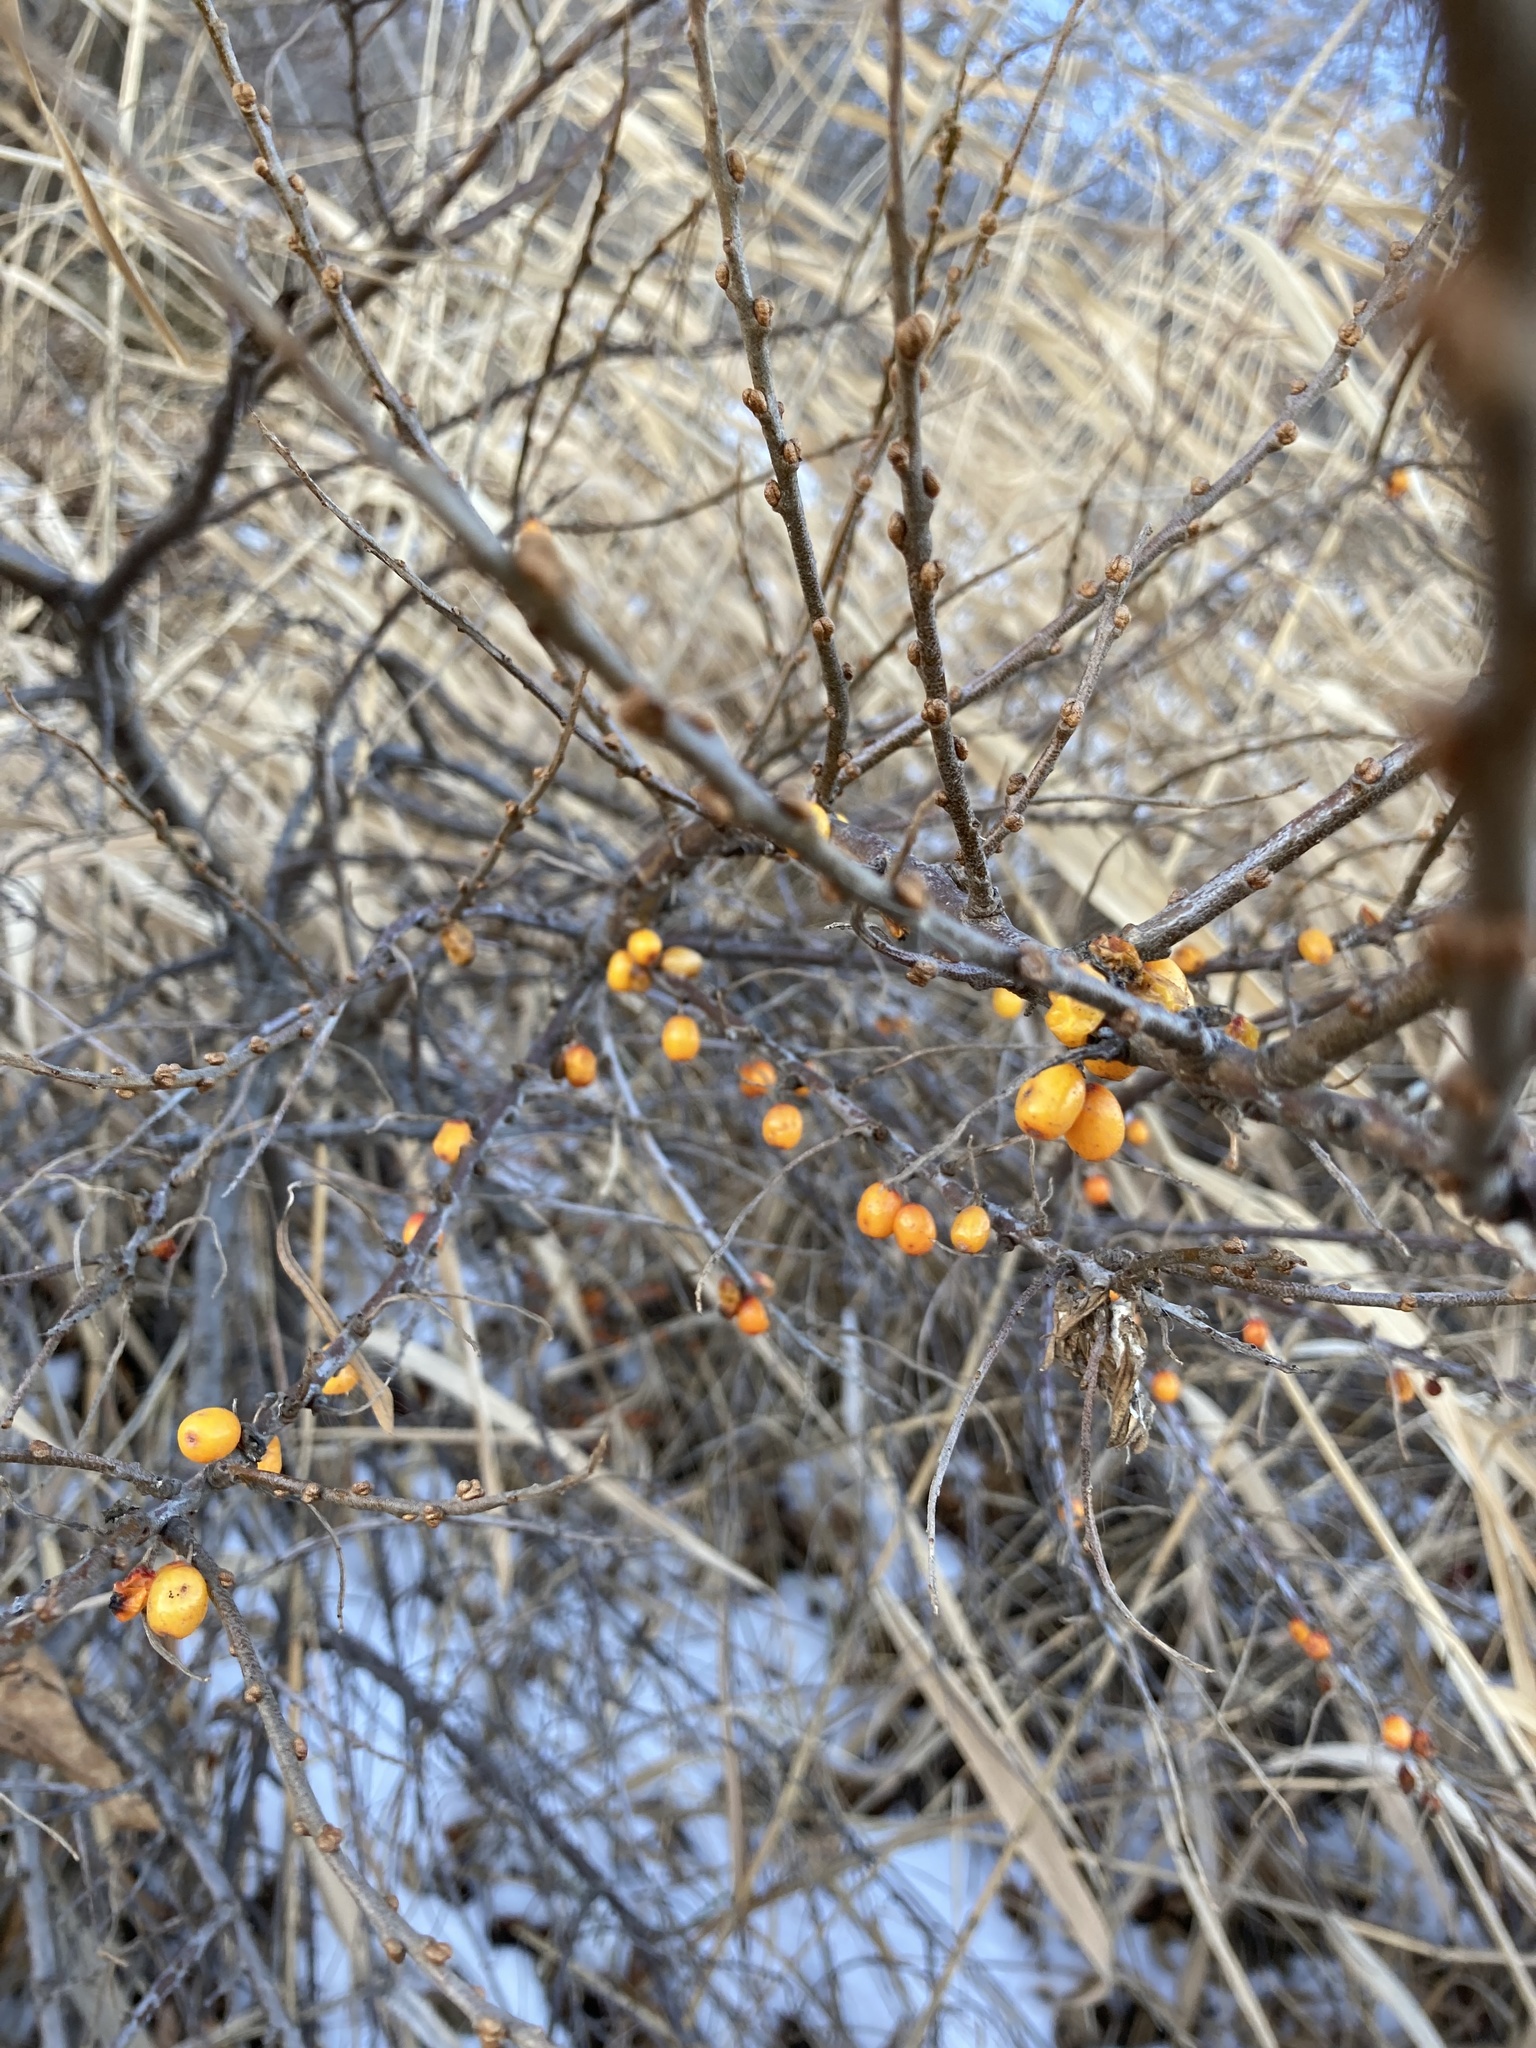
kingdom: Plantae
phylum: Tracheophyta
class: Magnoliopsida
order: Rosales
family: Elaeagnaceae
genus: Hippophae
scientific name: Hippophae rhamnoides
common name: Sea-buckthorn
